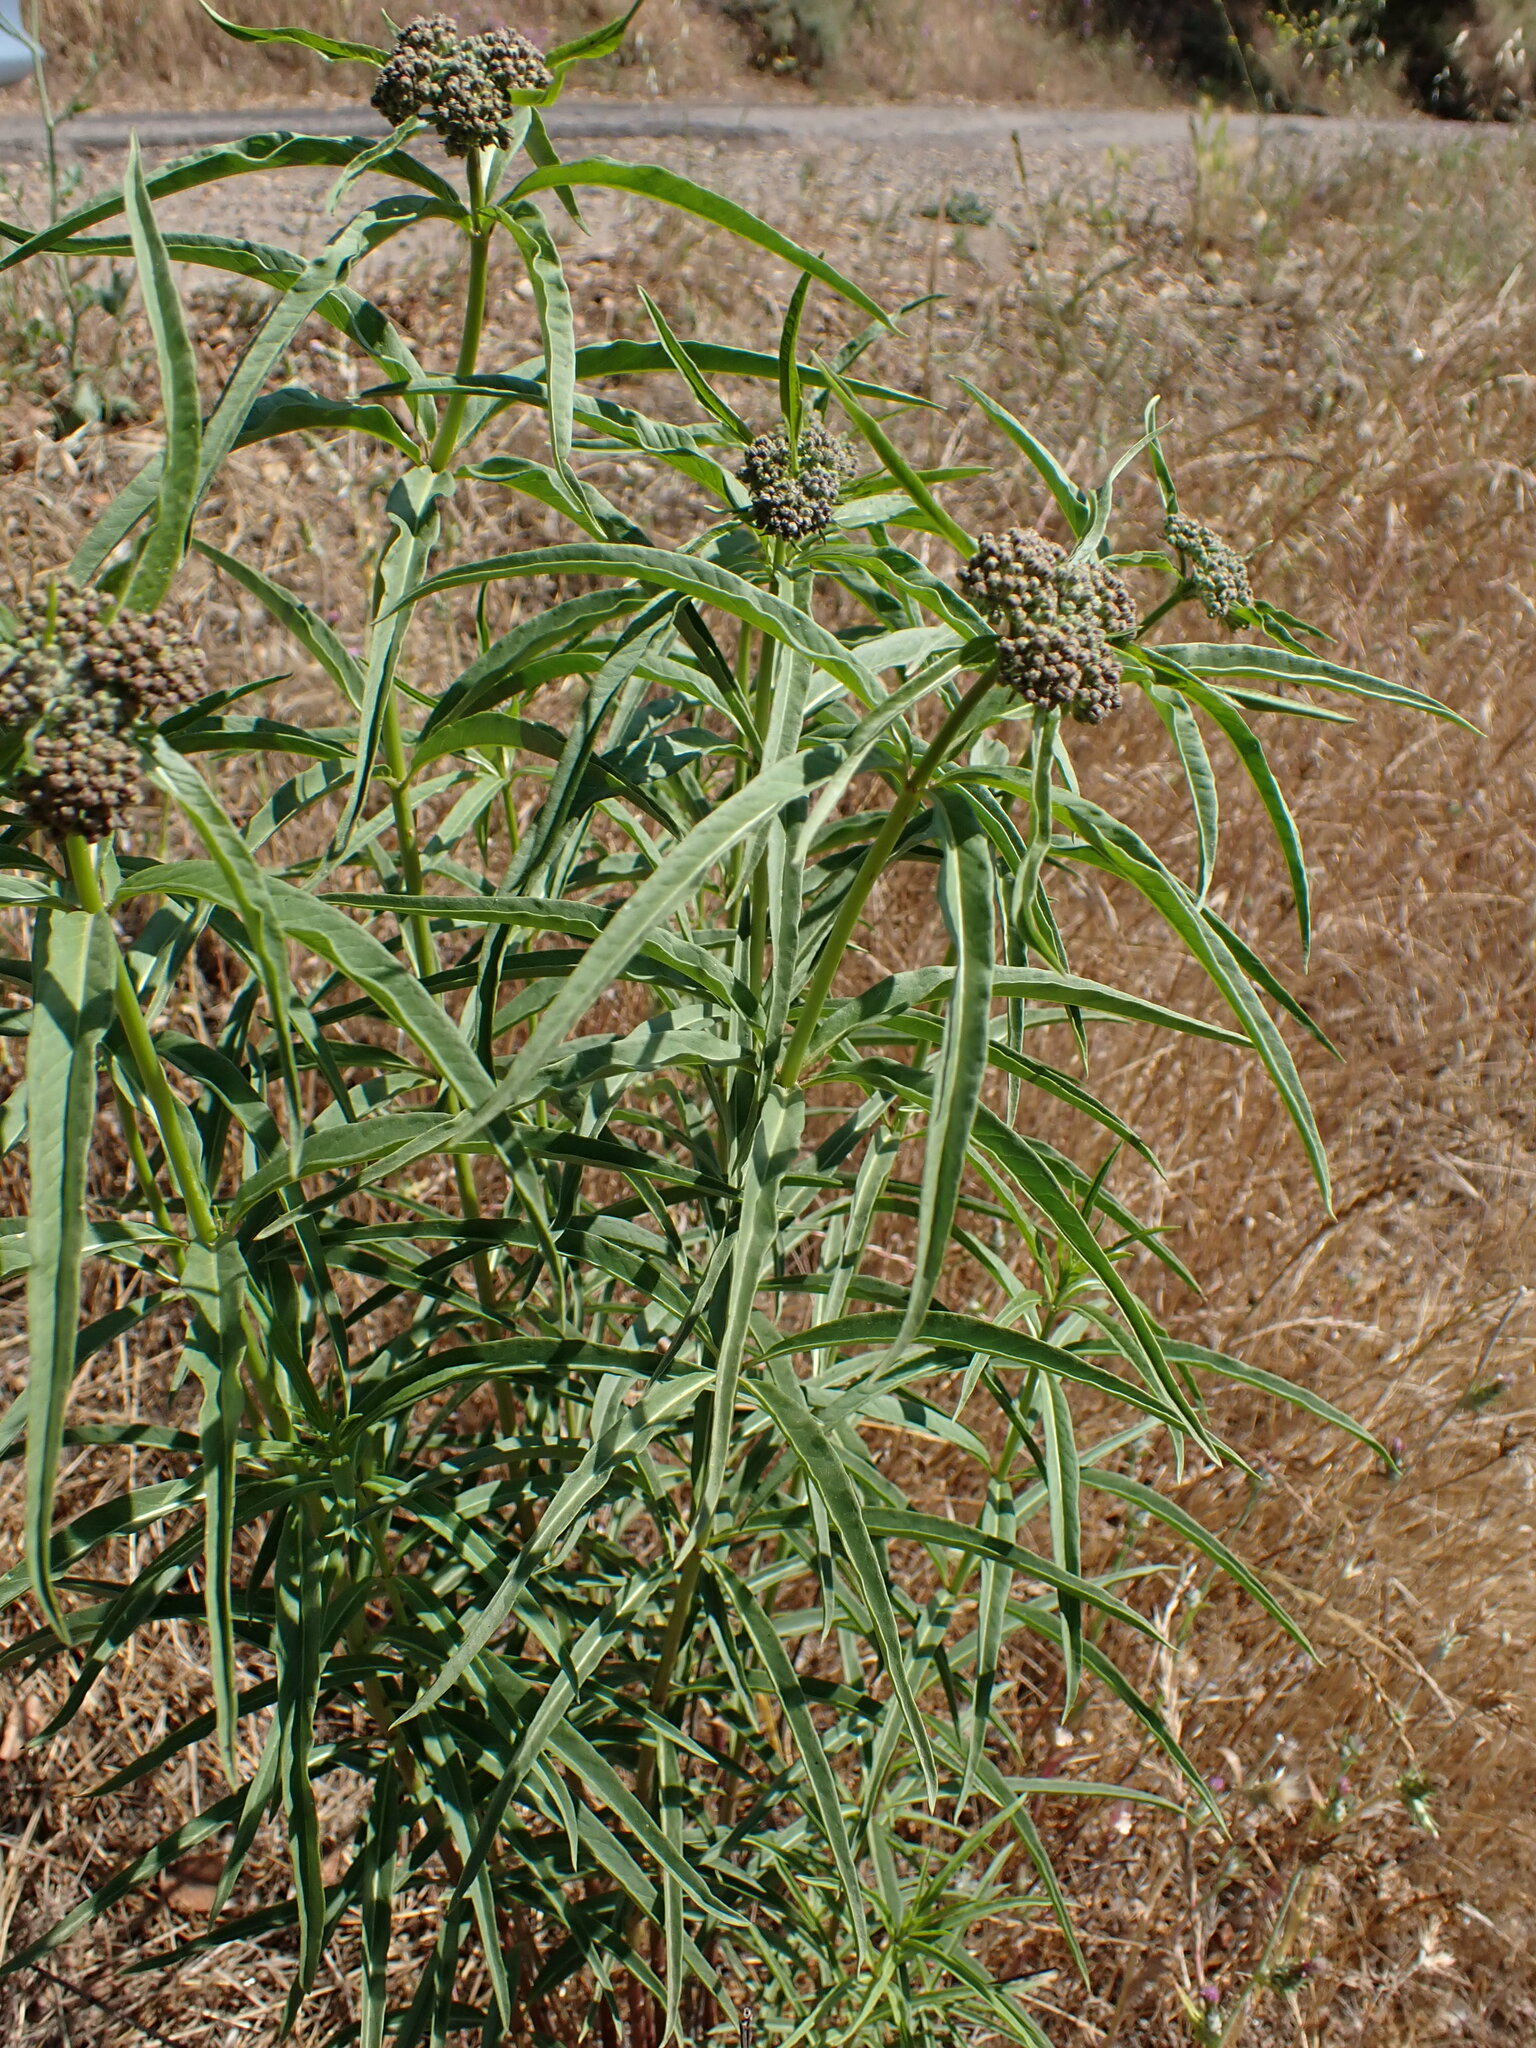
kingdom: Plantae
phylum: Tracheophyta
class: Magnoliopsida
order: Gentianales
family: Apocynaceae
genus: Asclepias
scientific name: Asclepias fascicularis
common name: Mexican milkweed
